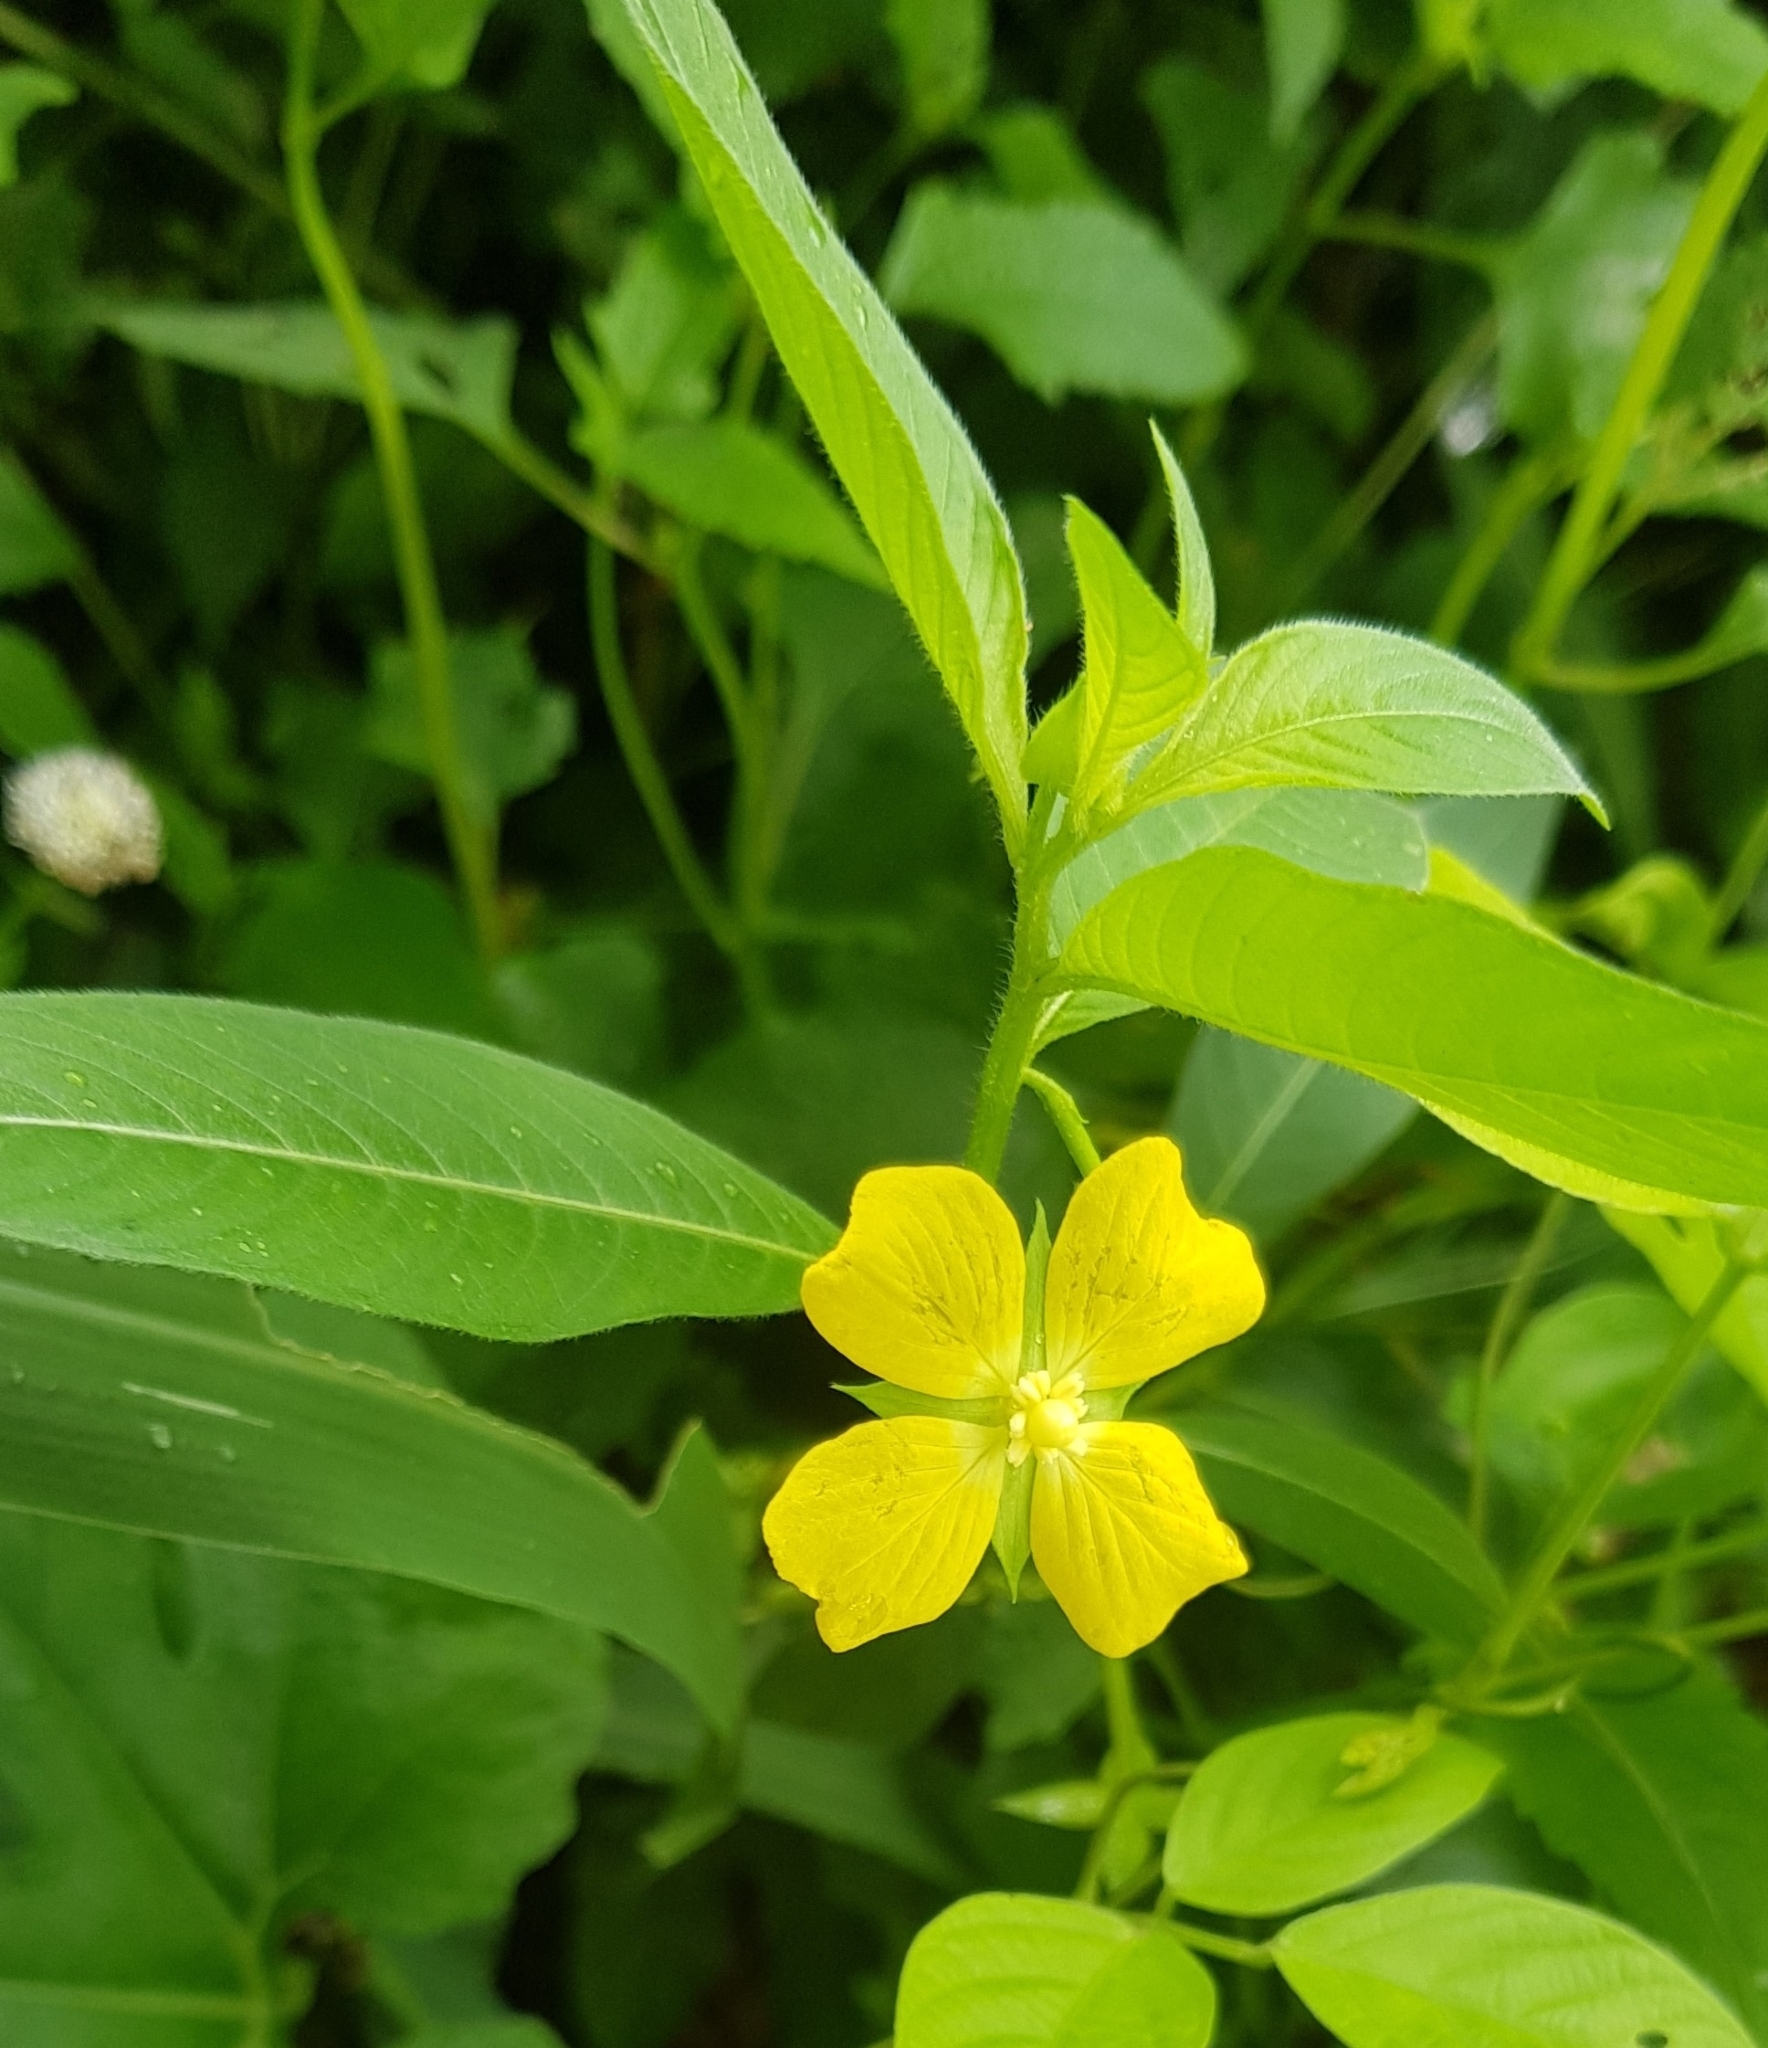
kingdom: Plantae
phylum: Tracheophyta
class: Magnoliopsida
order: Myrtales
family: Onagraceae
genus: Ludwigia
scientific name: Ludwigia octovalvis
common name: Water-primrose
